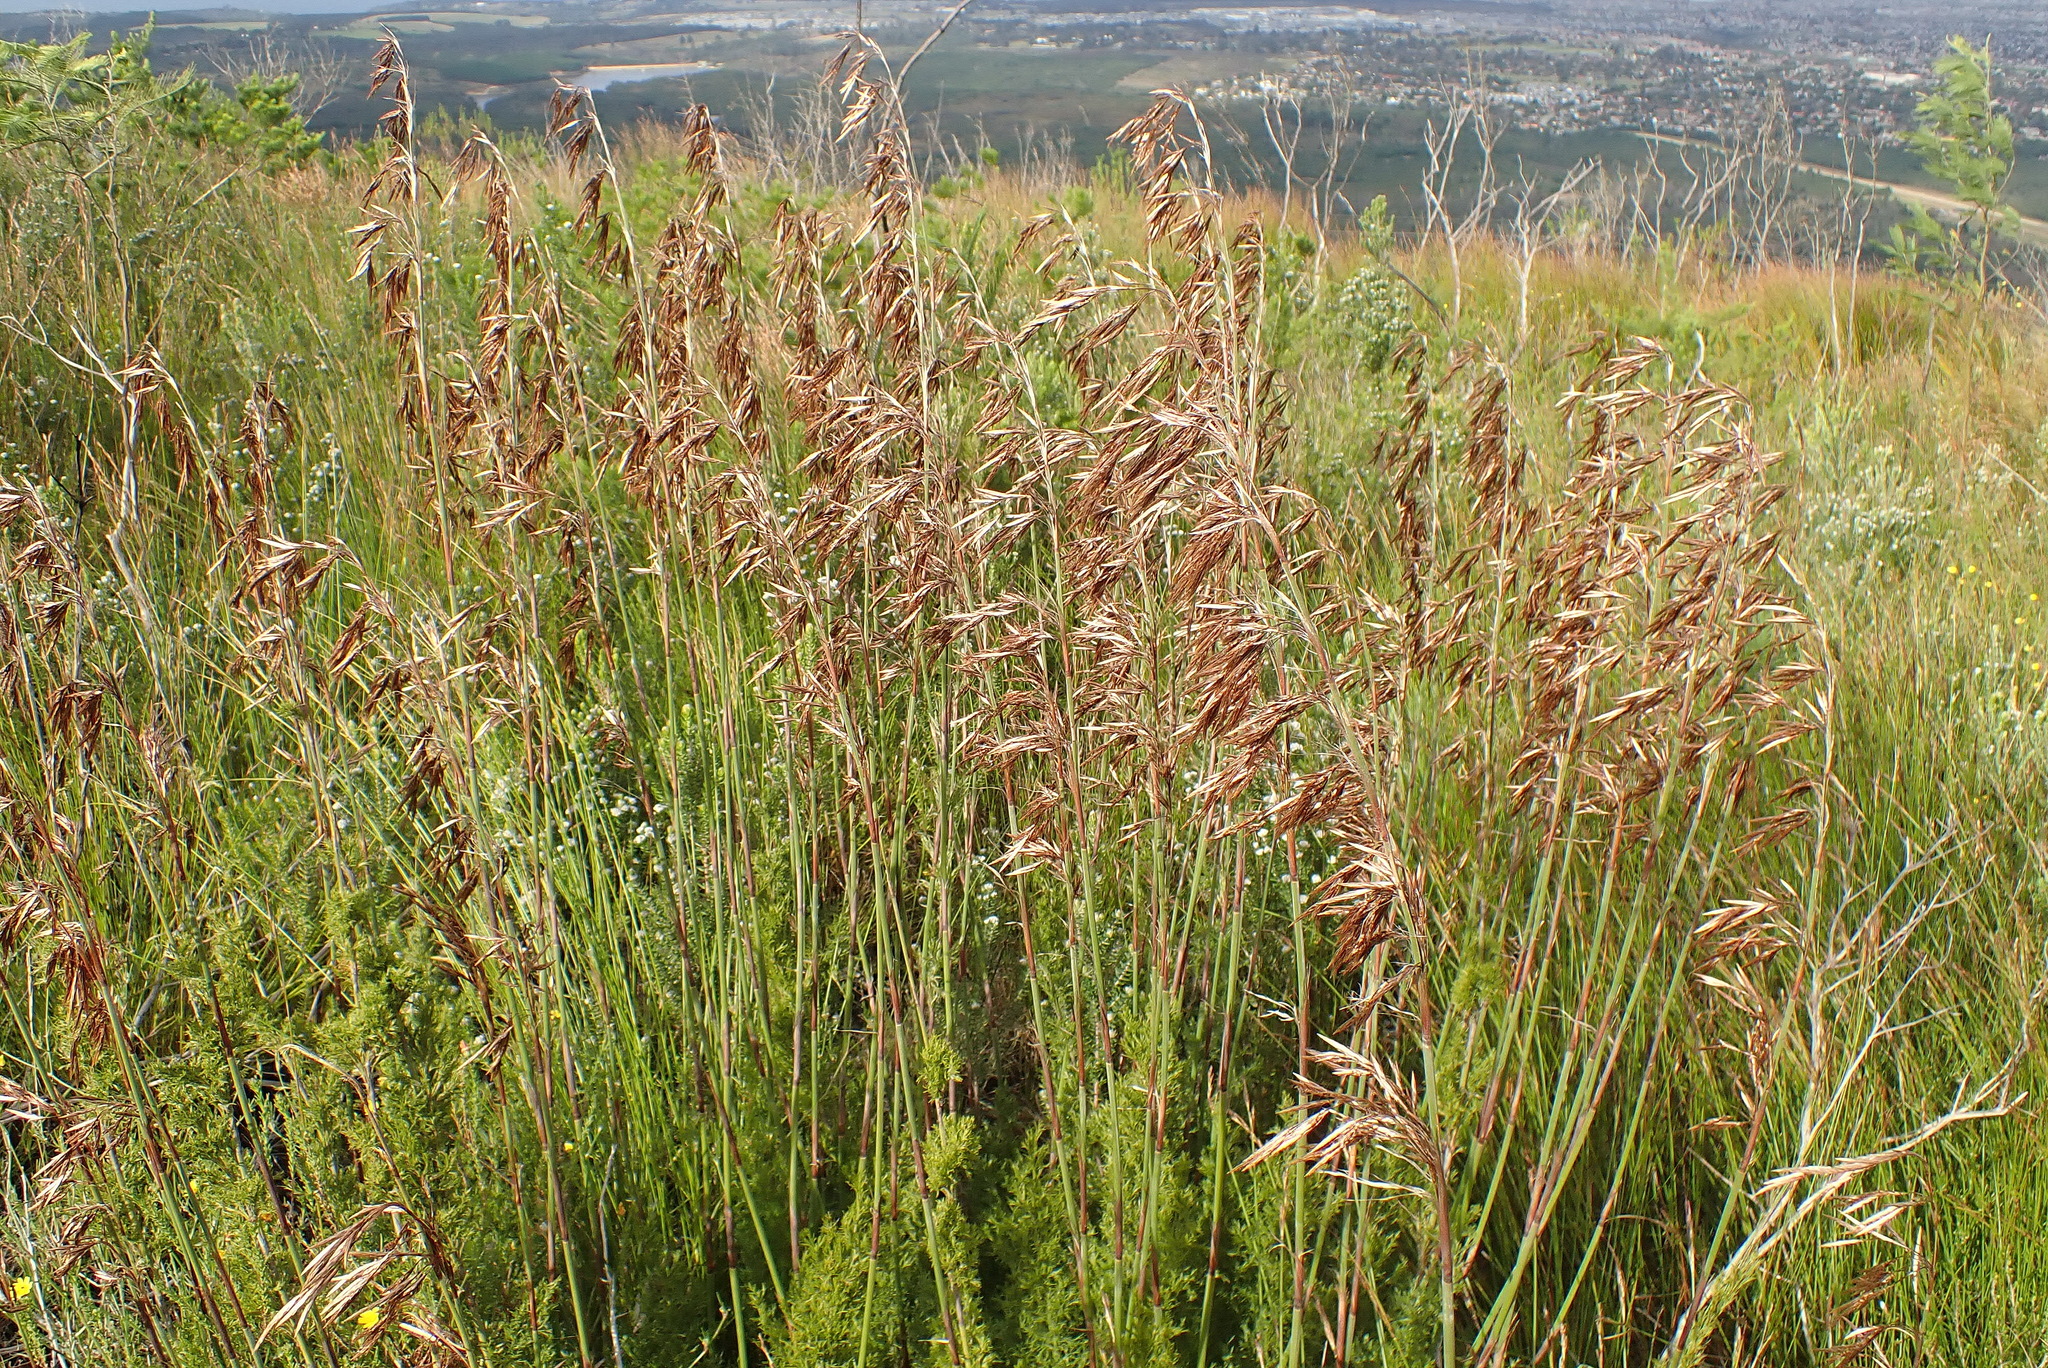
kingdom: Plantae
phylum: Tracheophyta
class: Liliopsida
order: Poales
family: Restionaceae
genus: Thamnochortus
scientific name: Thamnochortus cinereus
